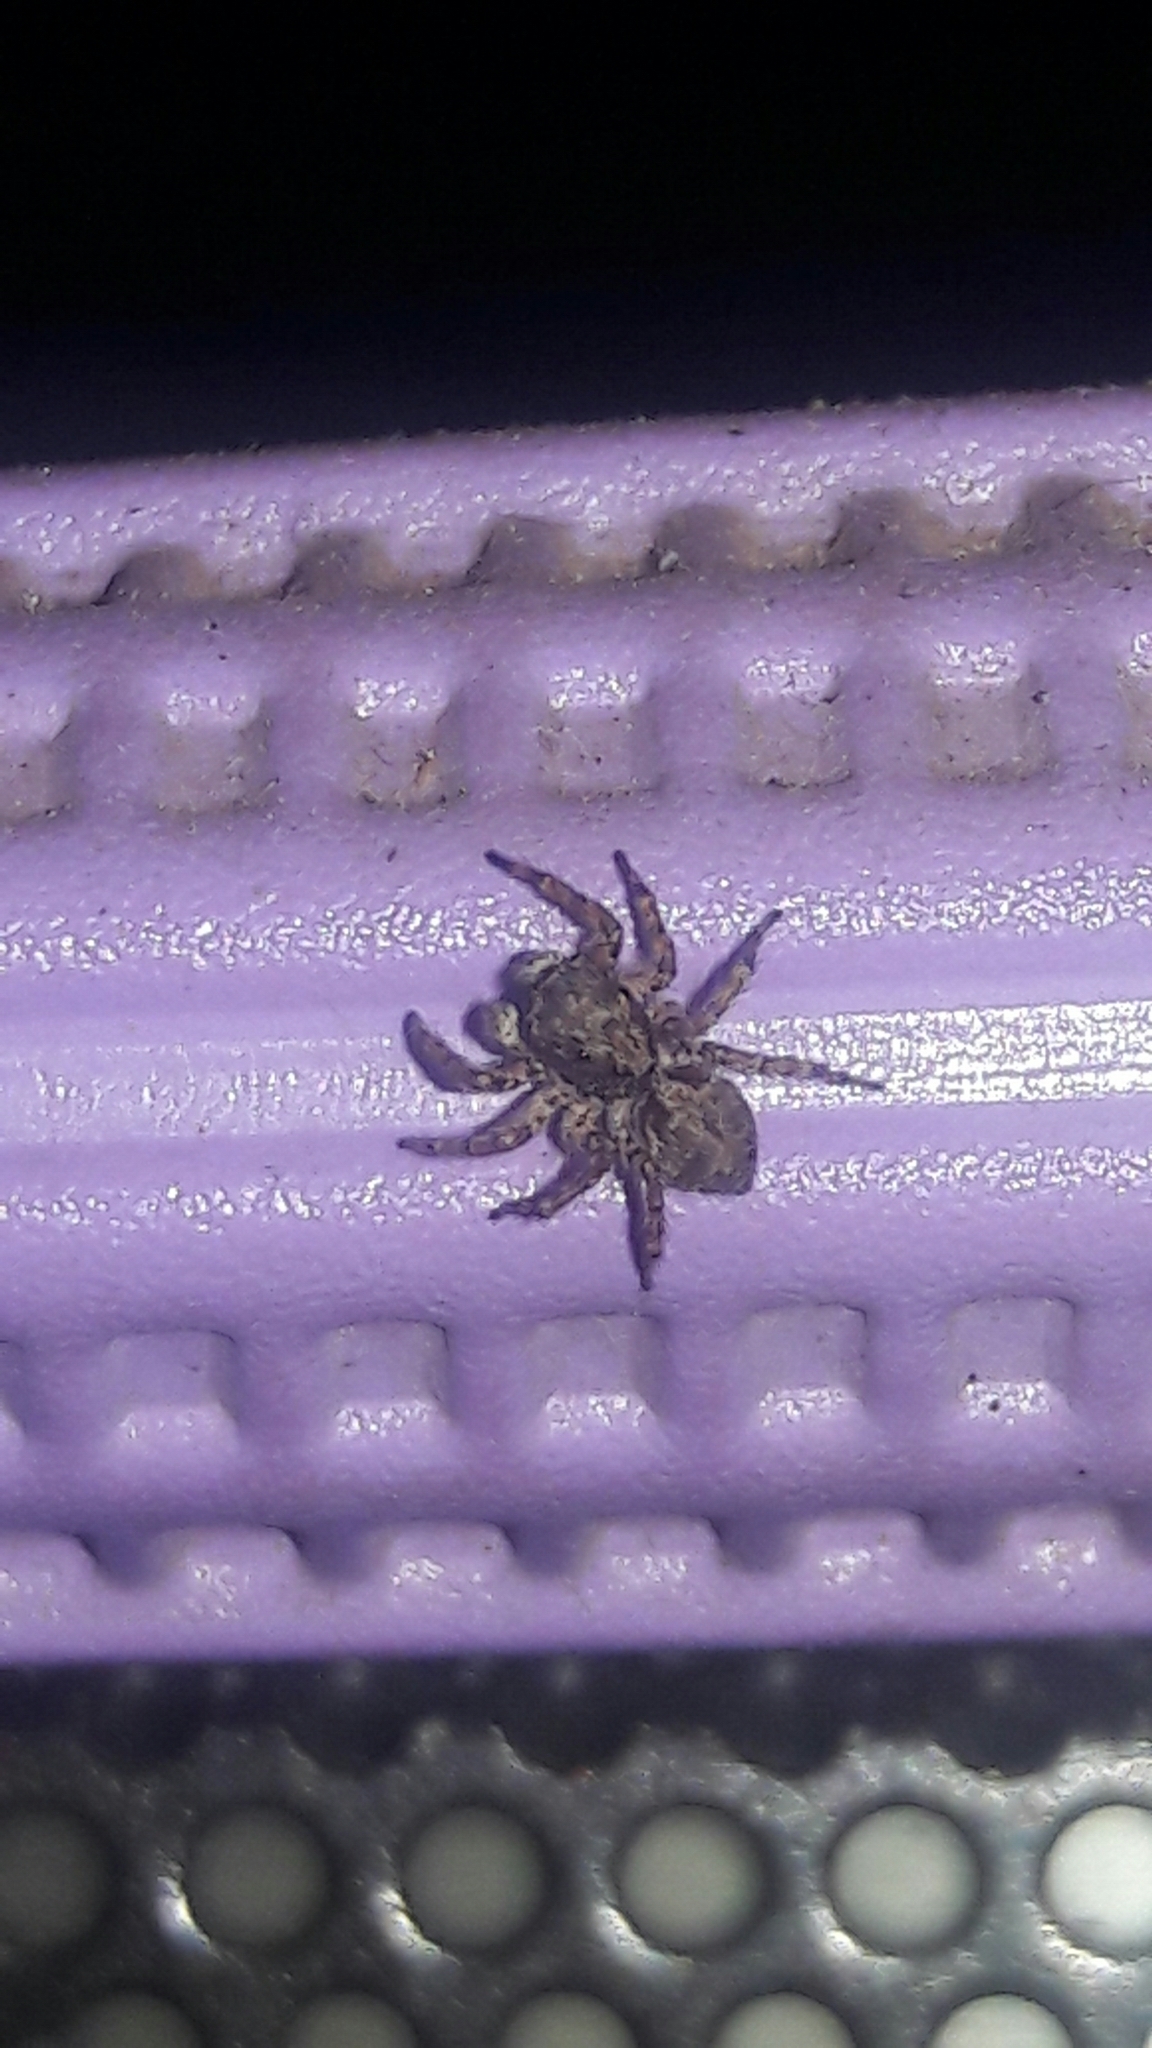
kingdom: Animalia
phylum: Arthropoda
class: Arachnida
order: Araneae
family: Salticidae
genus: Marma
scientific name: Marma nigritarsis
